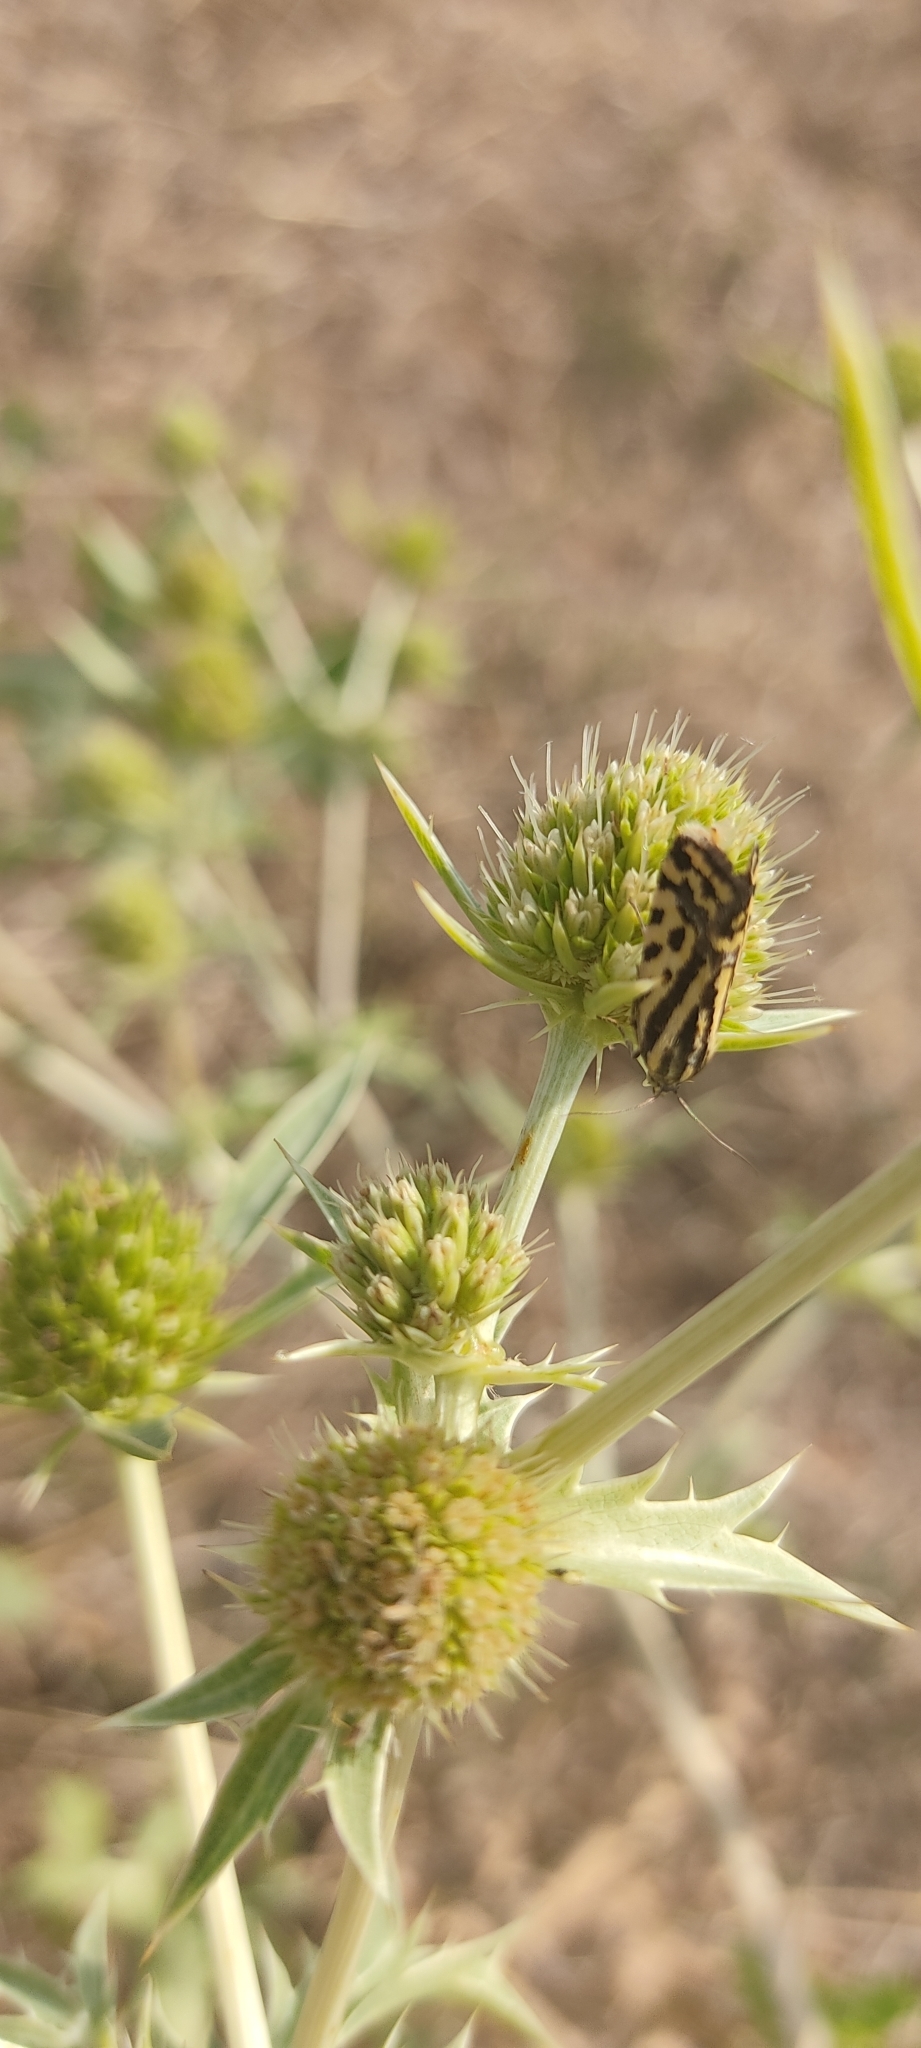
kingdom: Animalia
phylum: Arthropoda
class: Insecta
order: Lepidoptera
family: Noctuidae
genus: Acontia
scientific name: Acontia trabealis
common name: Spotted sulphur
